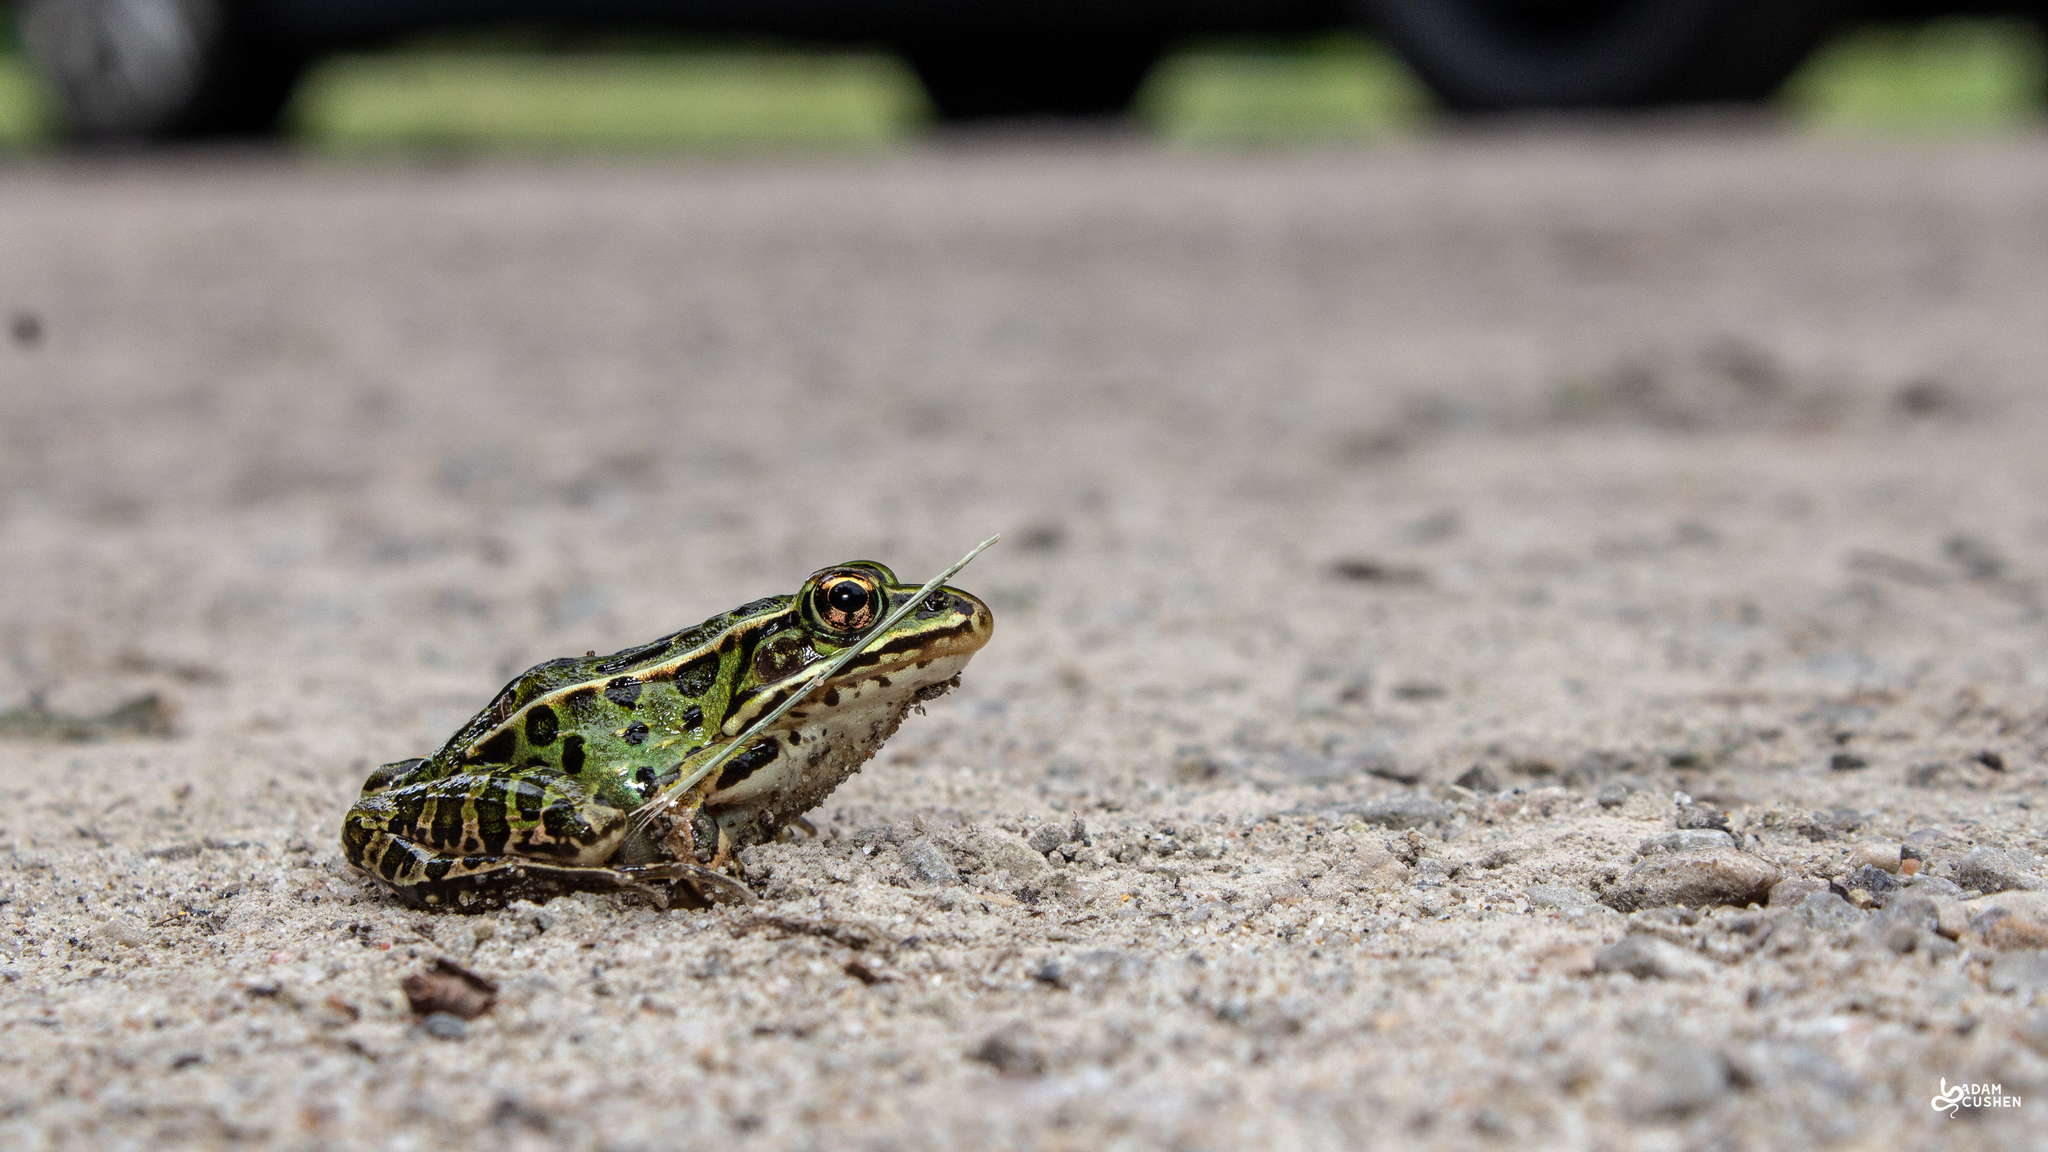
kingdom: Animalia
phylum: Chordata
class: Amphibia
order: Anura
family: Ranidae
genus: Lithobates
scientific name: Lithobates pipiens
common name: Northern leopard frog
